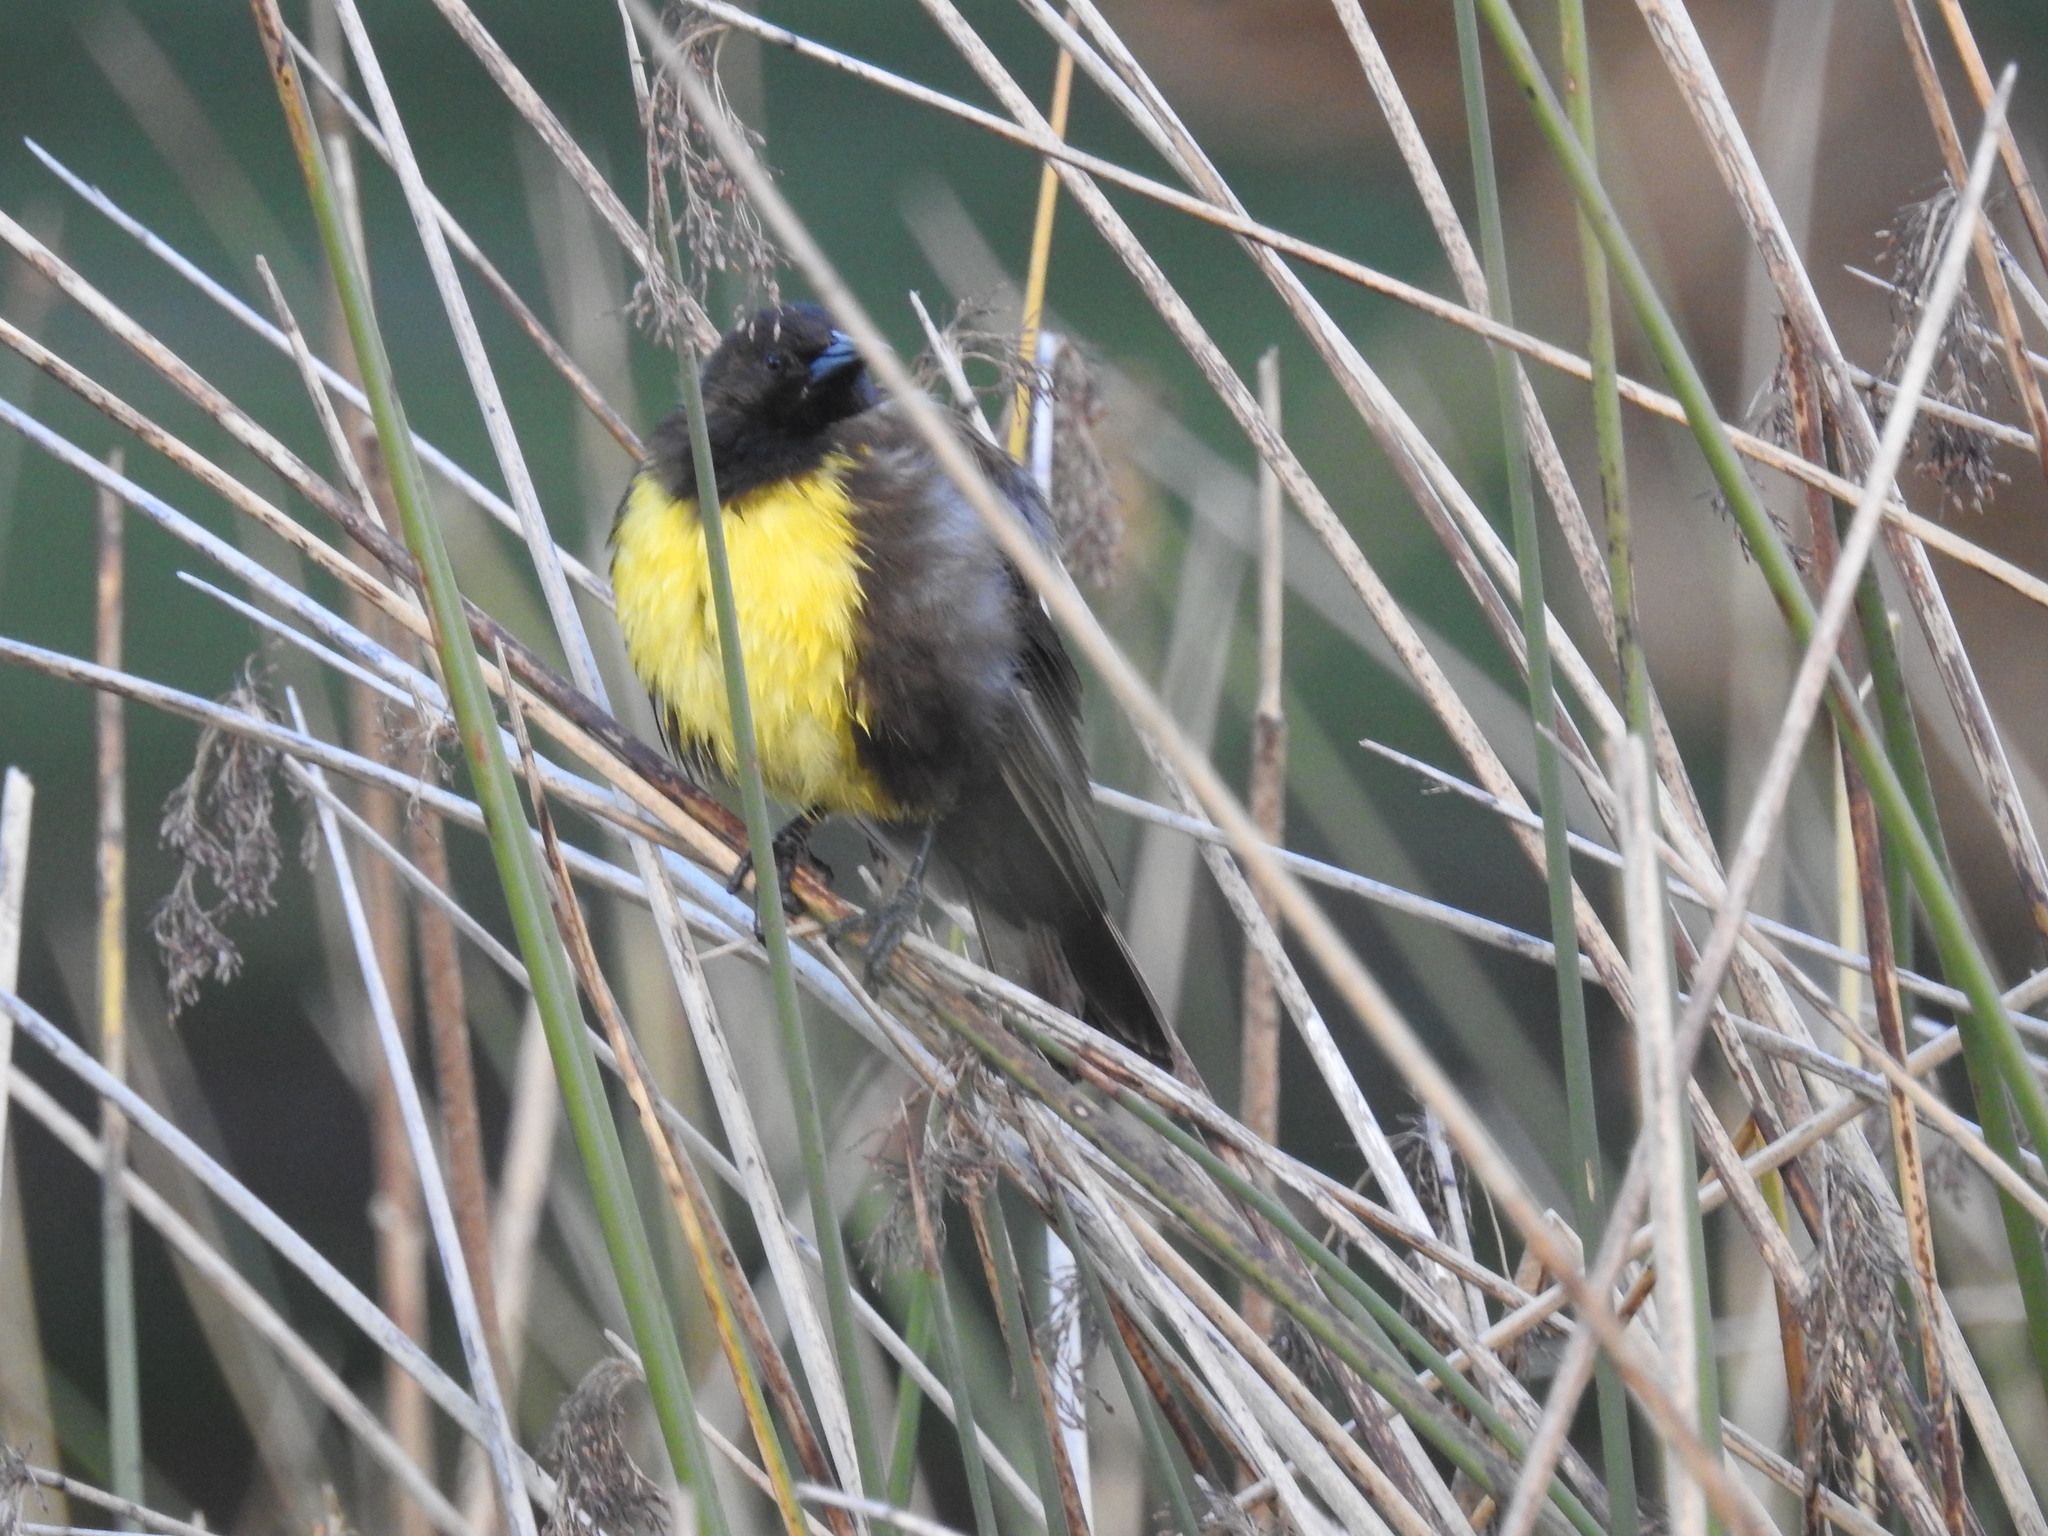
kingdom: Animalia
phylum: Chordata
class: Aves
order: Passeriformes
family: Icteridae
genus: Pseudoleistes
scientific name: Pseudoleistes virescens
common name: Brown-and-yellow marshbird
